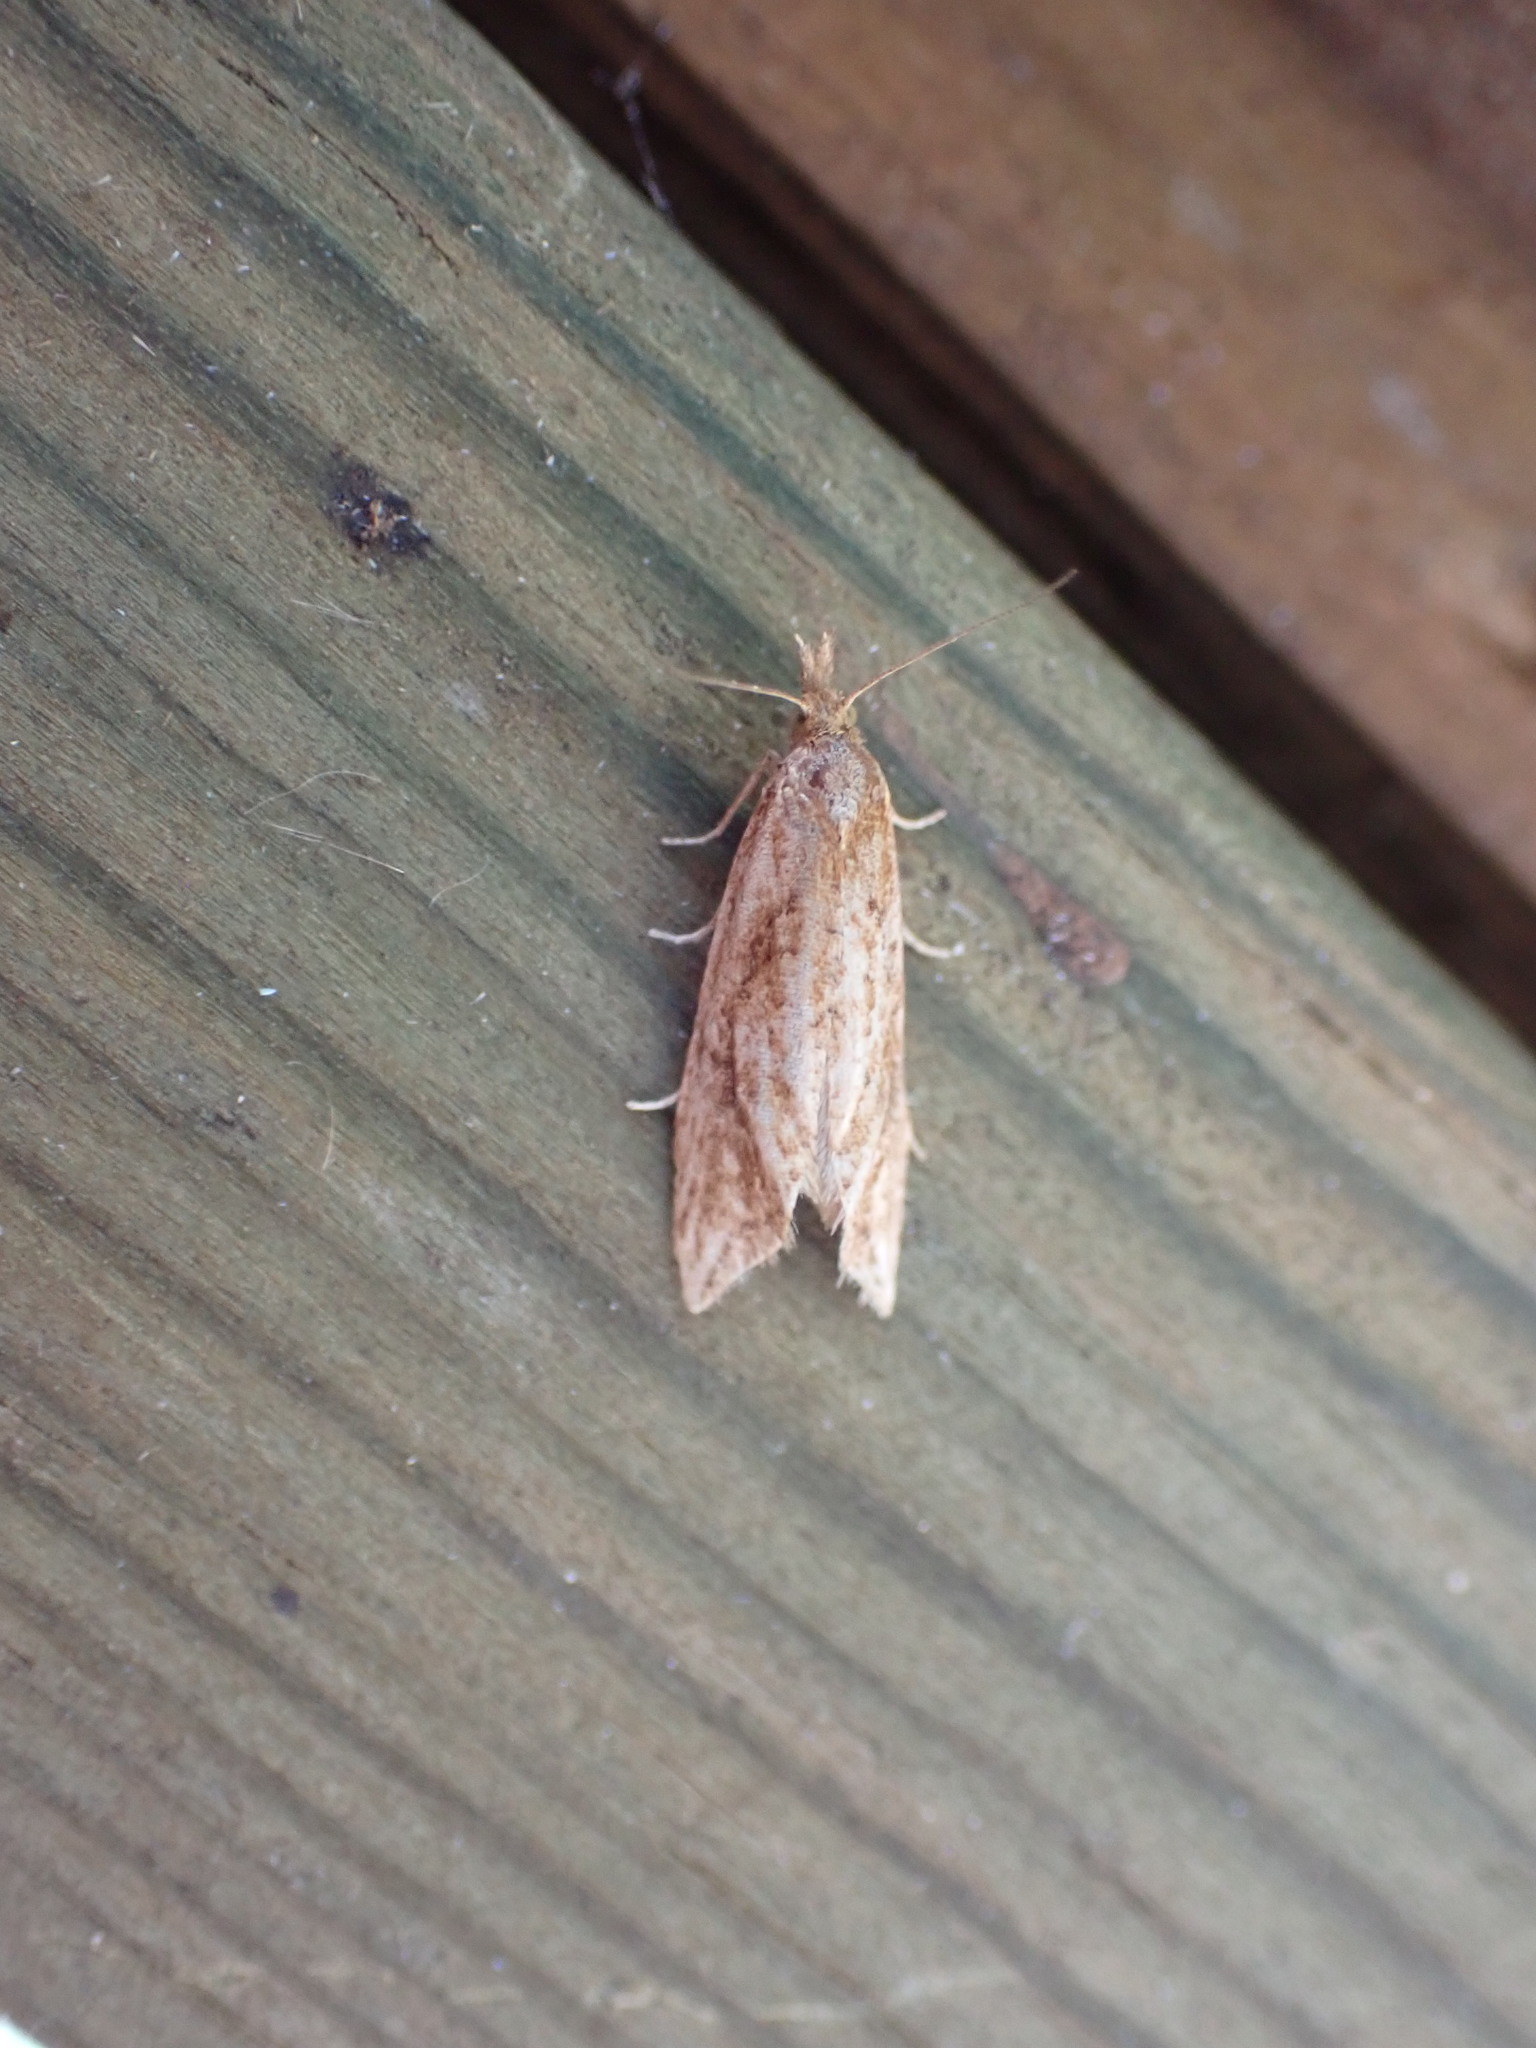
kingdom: Animalia
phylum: Arthropoda
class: Insecta
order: Lepidoptera
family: Tortricidae
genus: Aethes
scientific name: Aethes biscana
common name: Reddish aethes
